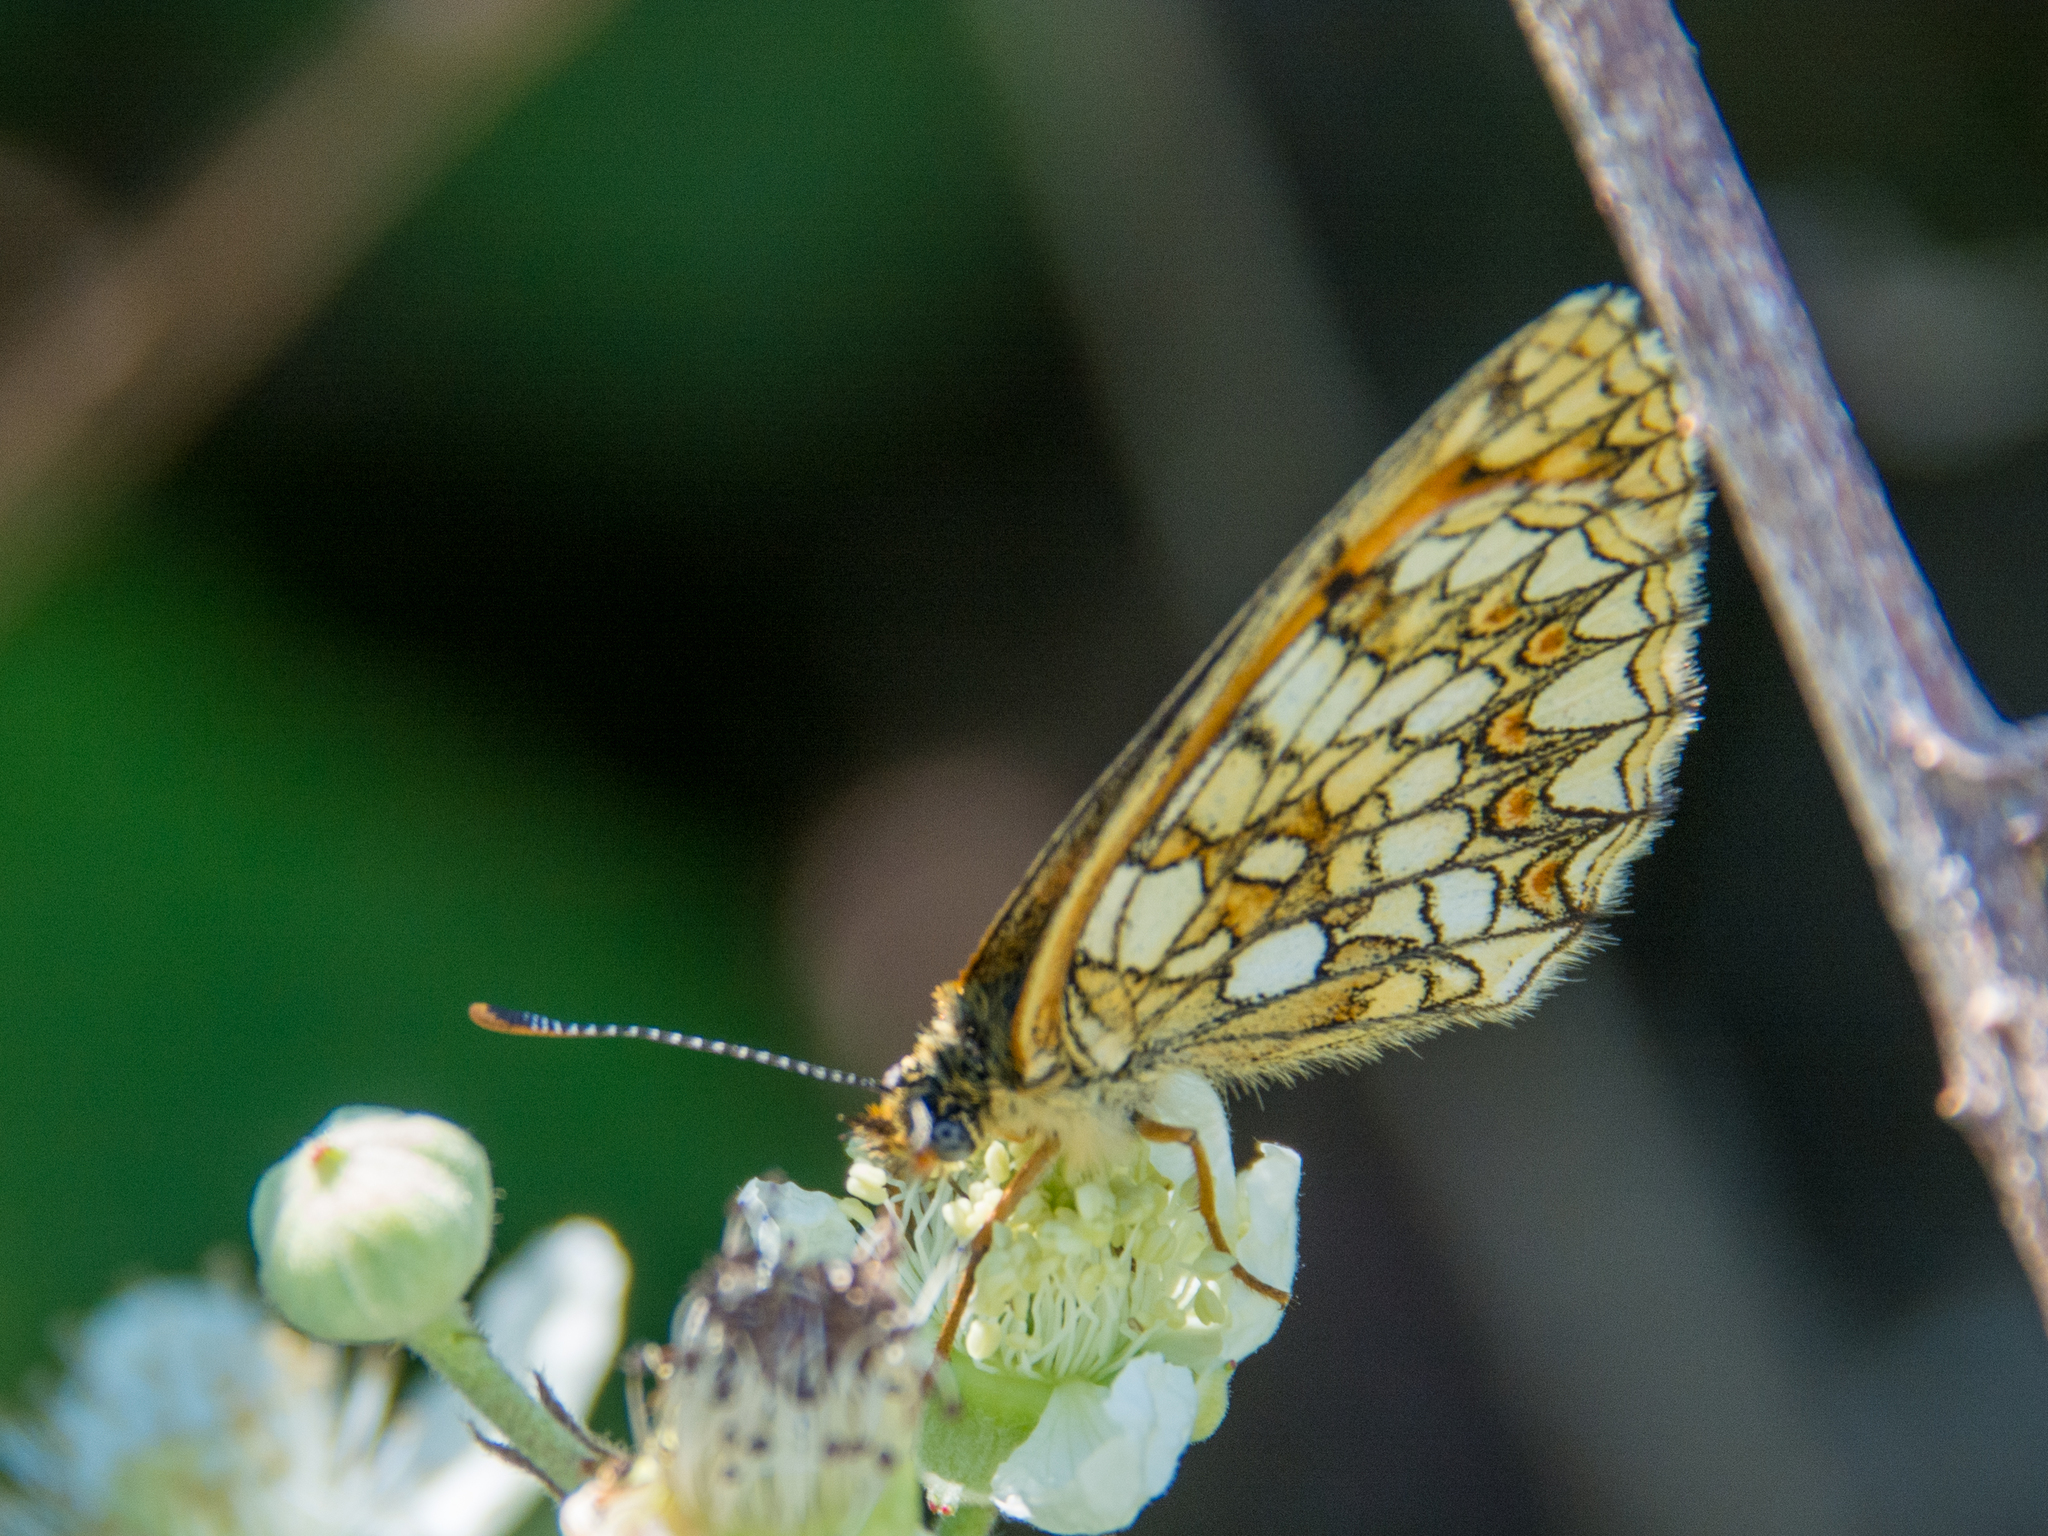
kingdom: Animalia
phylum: Arthropoda
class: Insecta
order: Lepidoptera
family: Nymphalidae
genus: Mellicta
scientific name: Mellicta athalia
